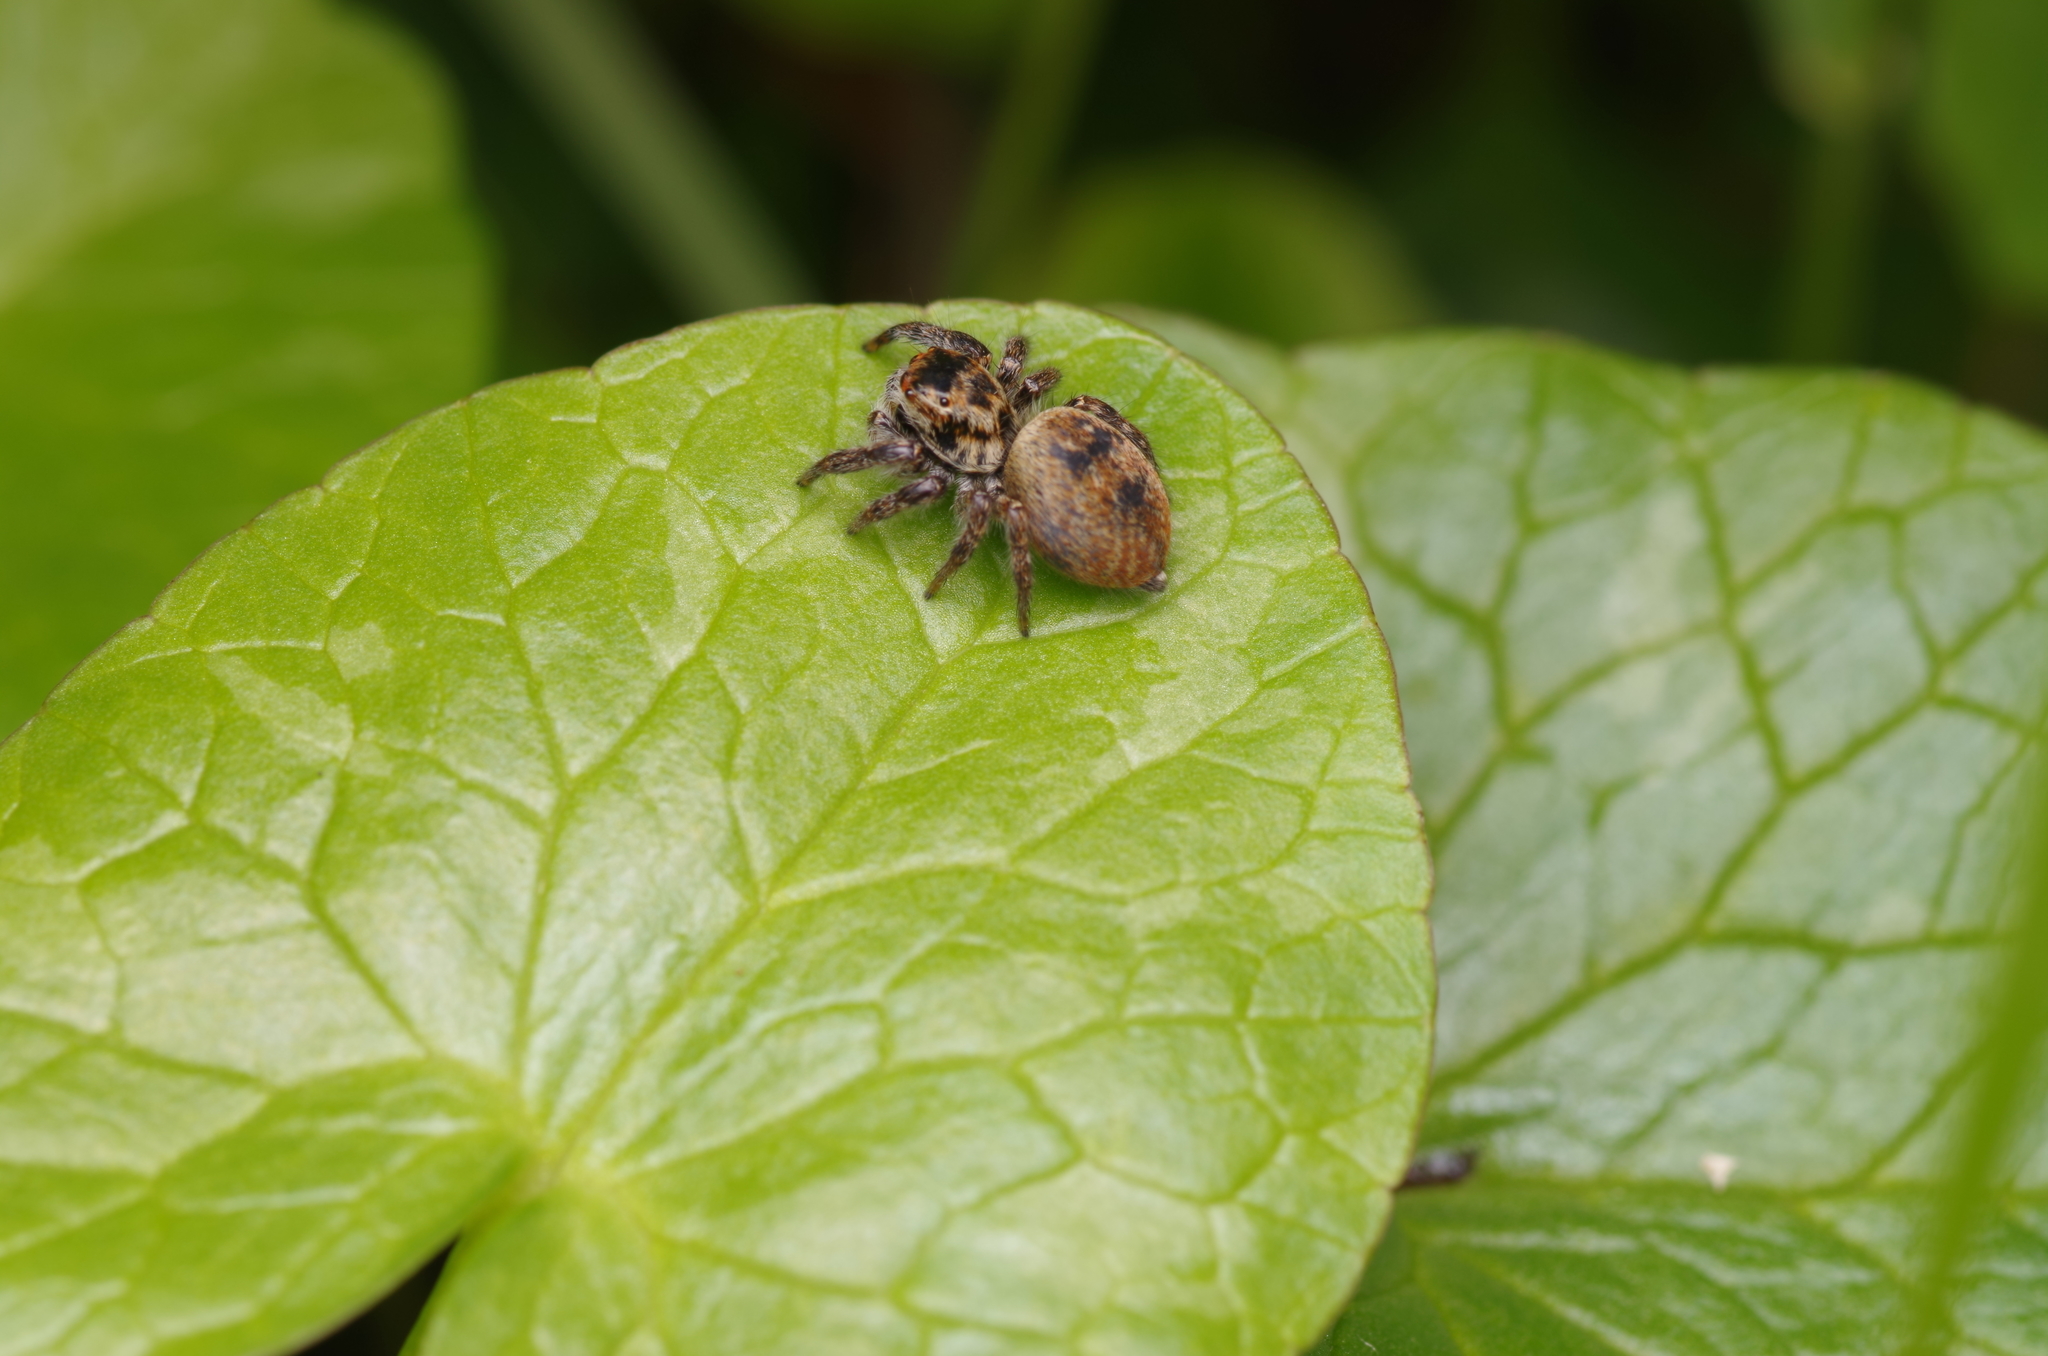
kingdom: Animalia
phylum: Arthropoda
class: Arachnida
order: Araneae
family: Salticidae
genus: Carrhotus
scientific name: Carrhotus xanthogramma
